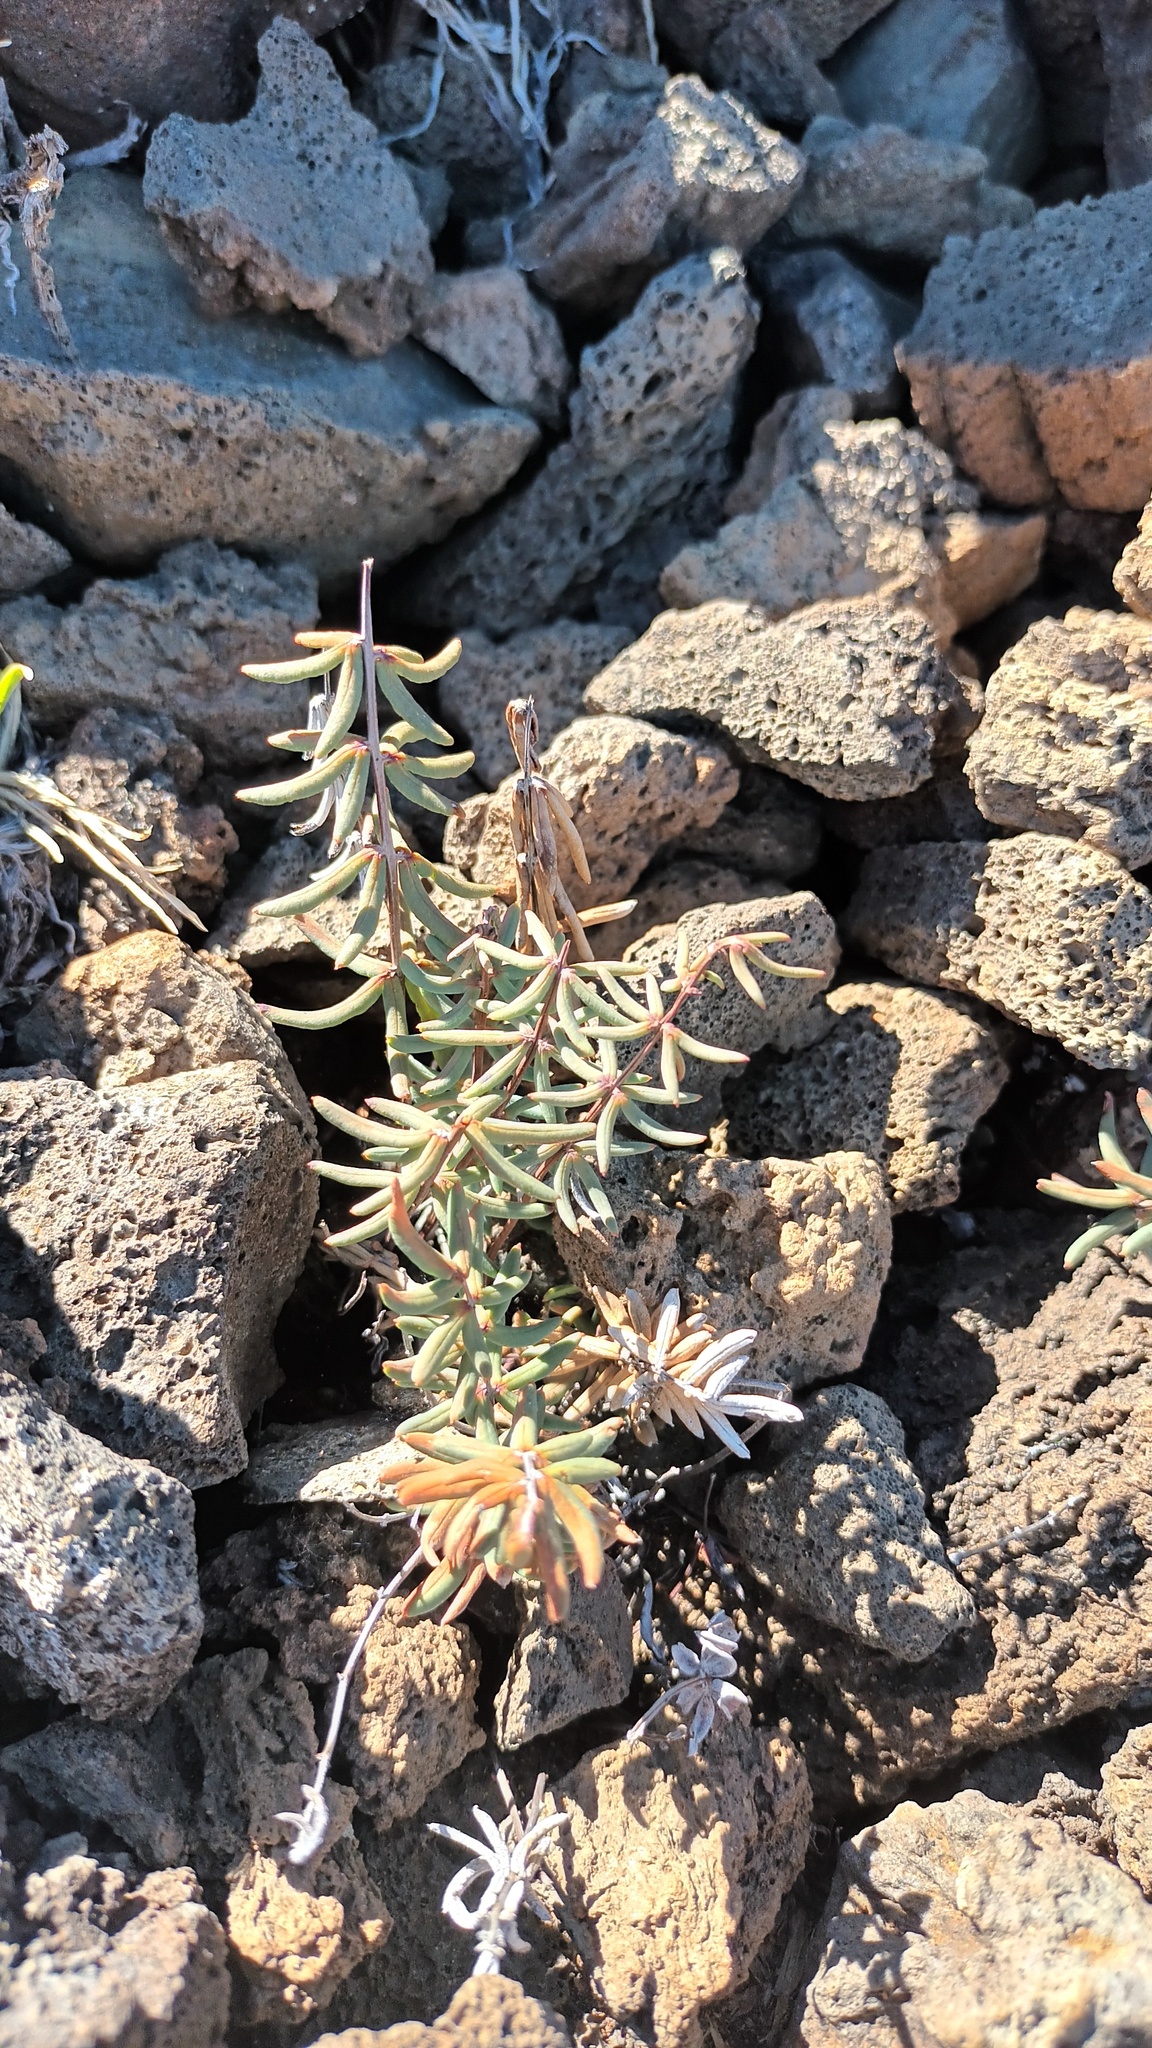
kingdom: Plantae
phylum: Tracheophyta
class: Polypodiopsida
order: Polypodiales
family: Pteridaceae
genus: Pellaea
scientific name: Pellaea ternifolia
